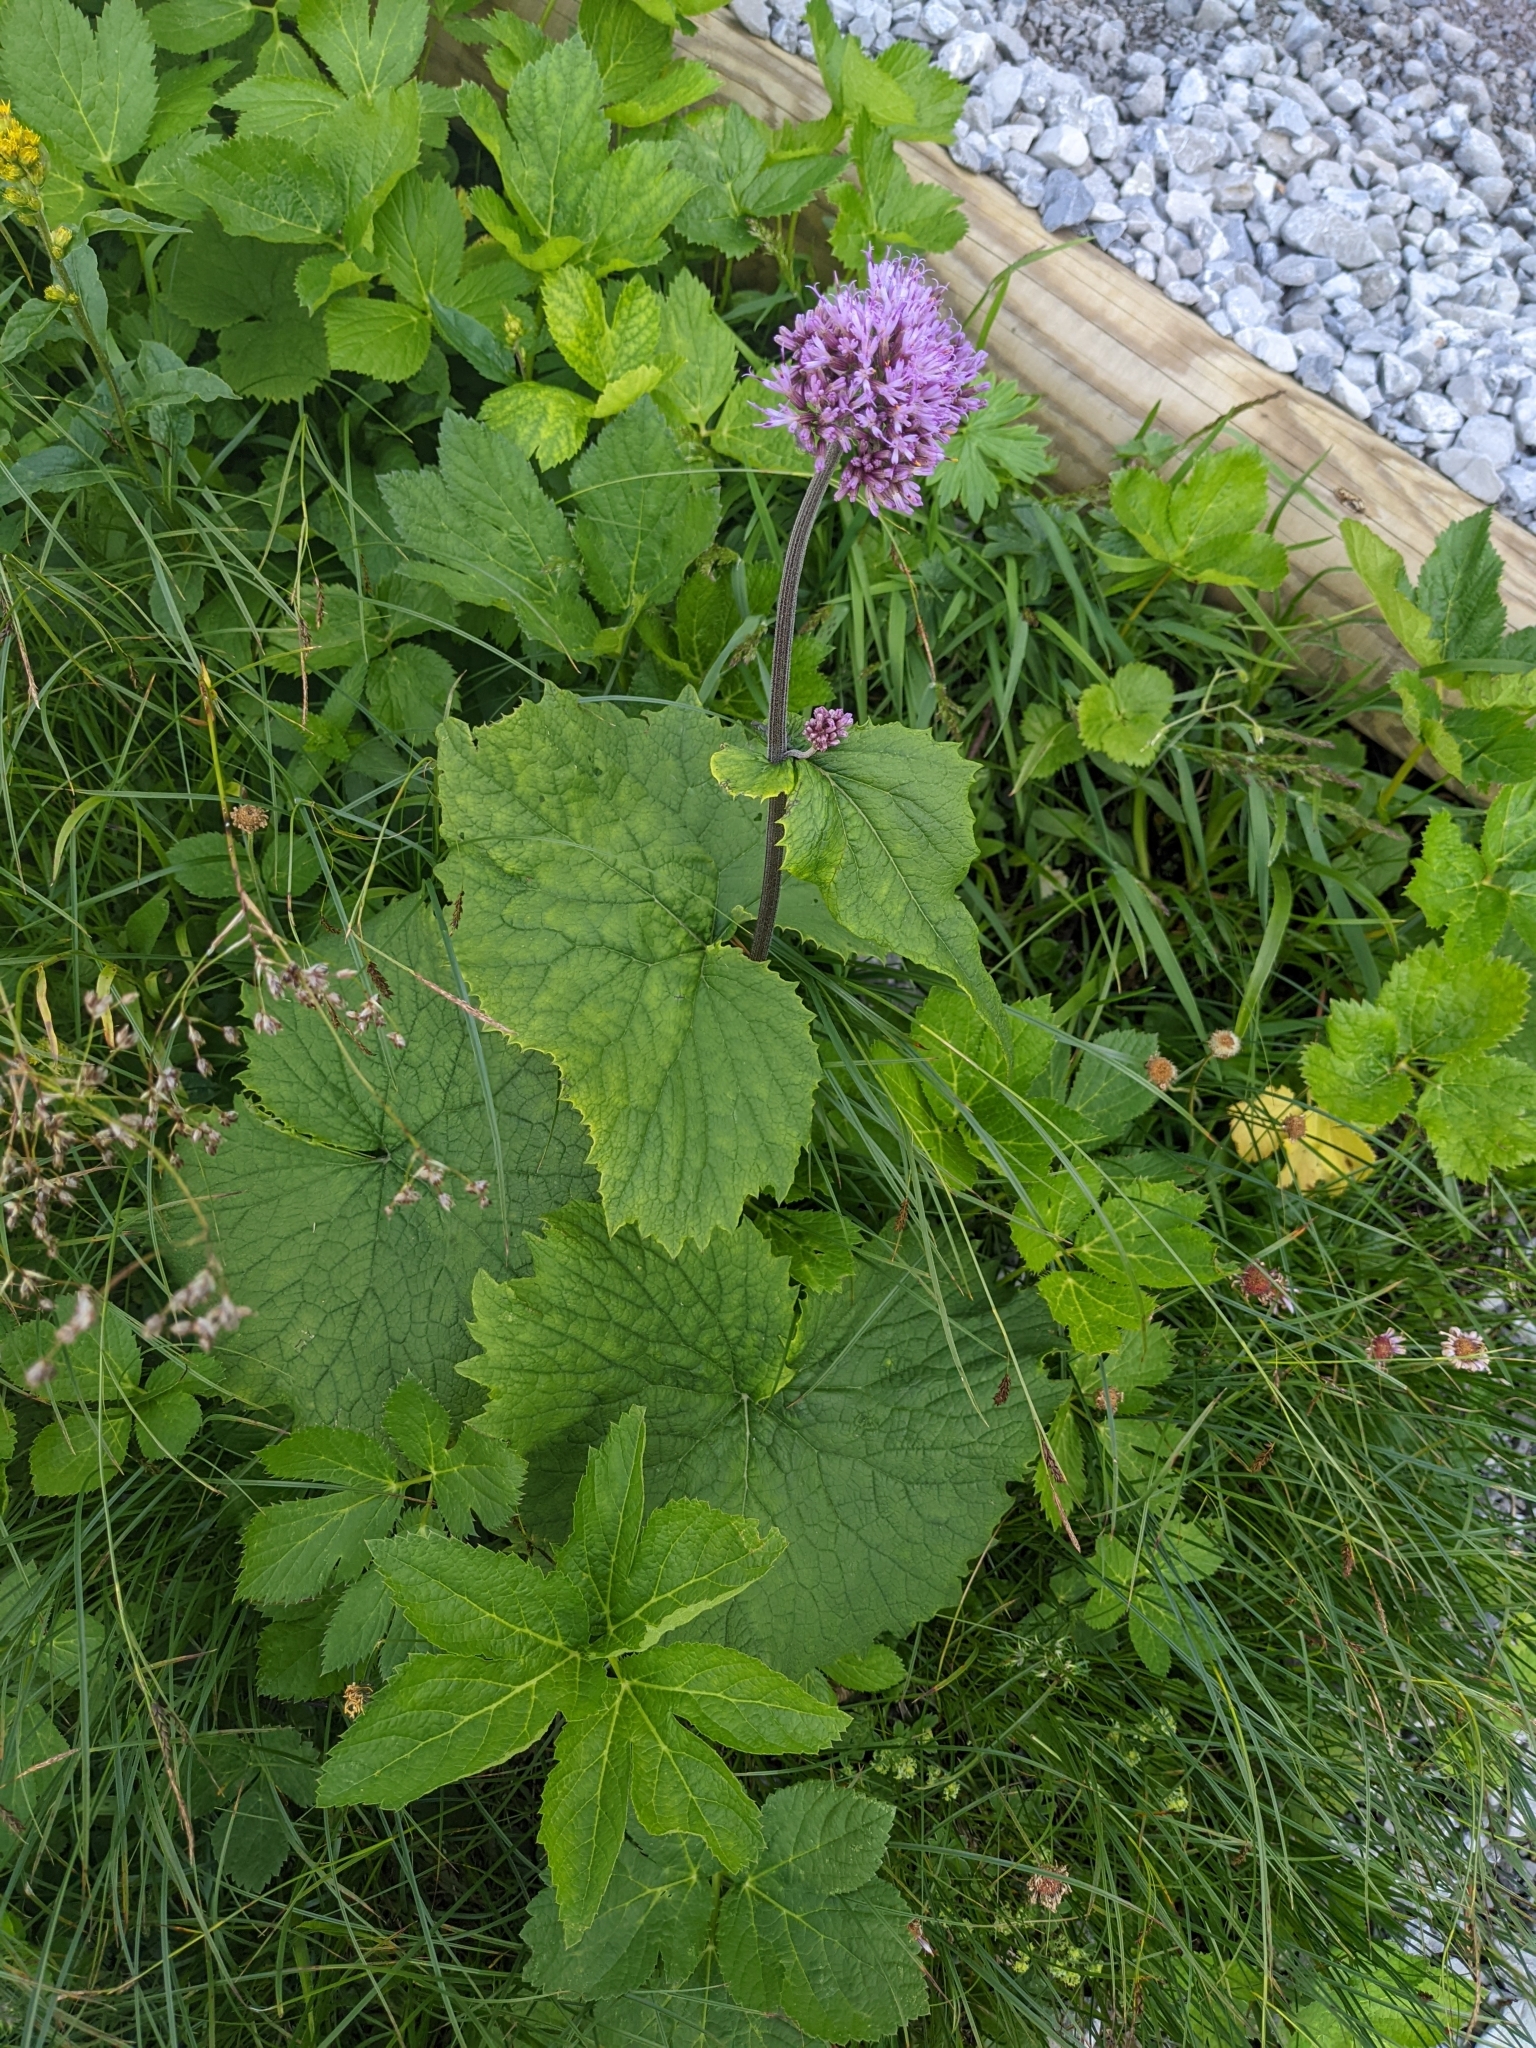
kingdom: Plantae
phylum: Tracheophyta
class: Magnoliopsida
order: Asterales
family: Asteraceae
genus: Adenostyles
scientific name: Adenostyles alliariae
